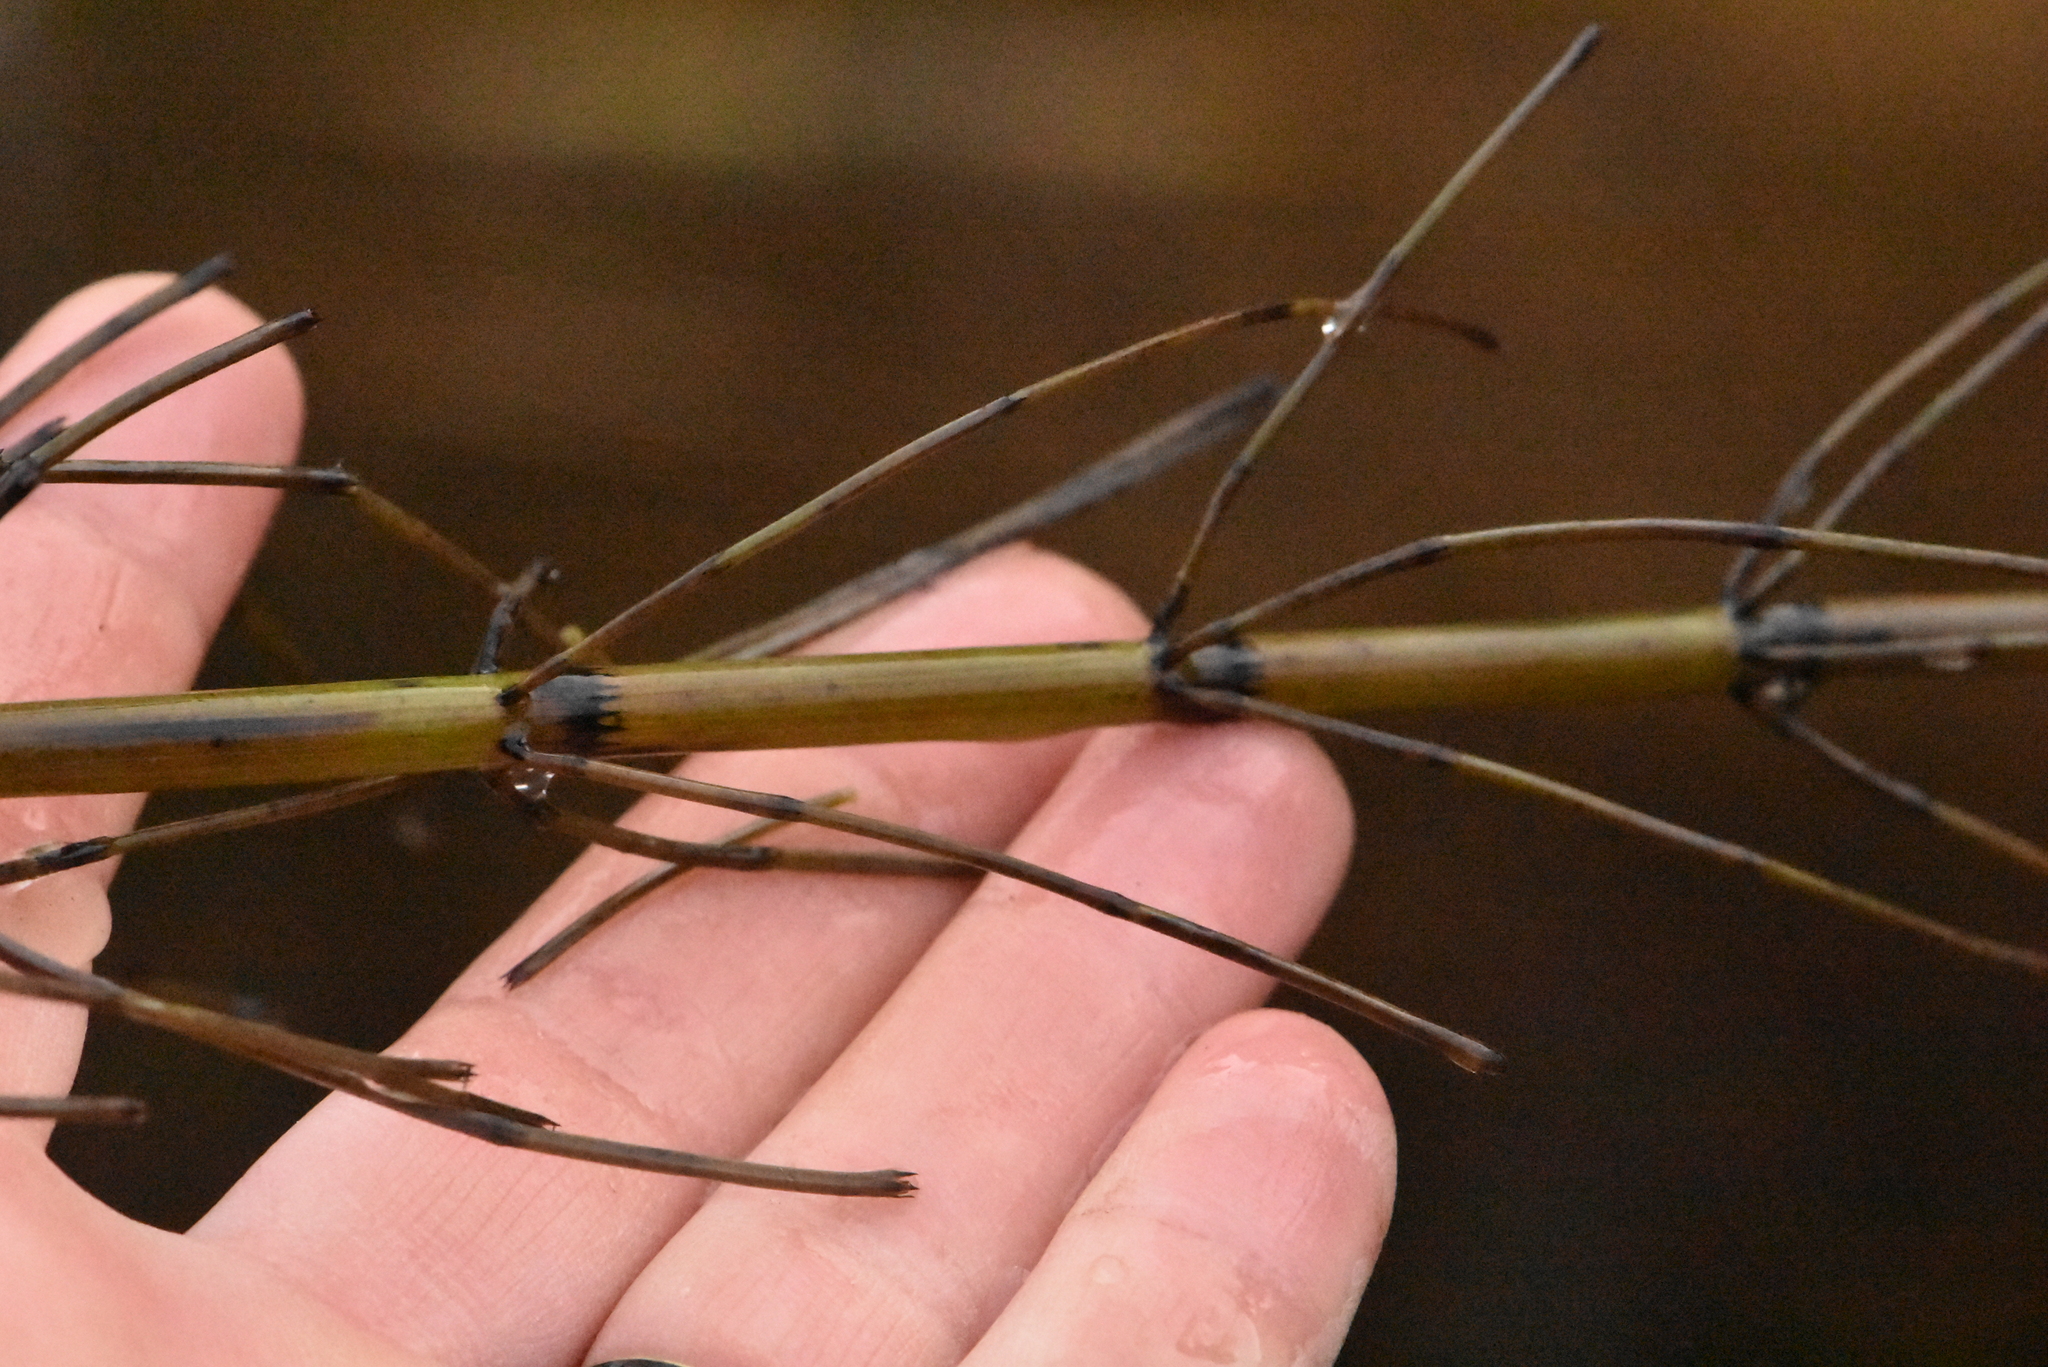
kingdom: Plantae
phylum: Tracheophyta
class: Polypodiopsida
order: Equisetales
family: Equisetaceae
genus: Equisetum
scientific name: Equisetum fluviatile
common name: Water horsetail
